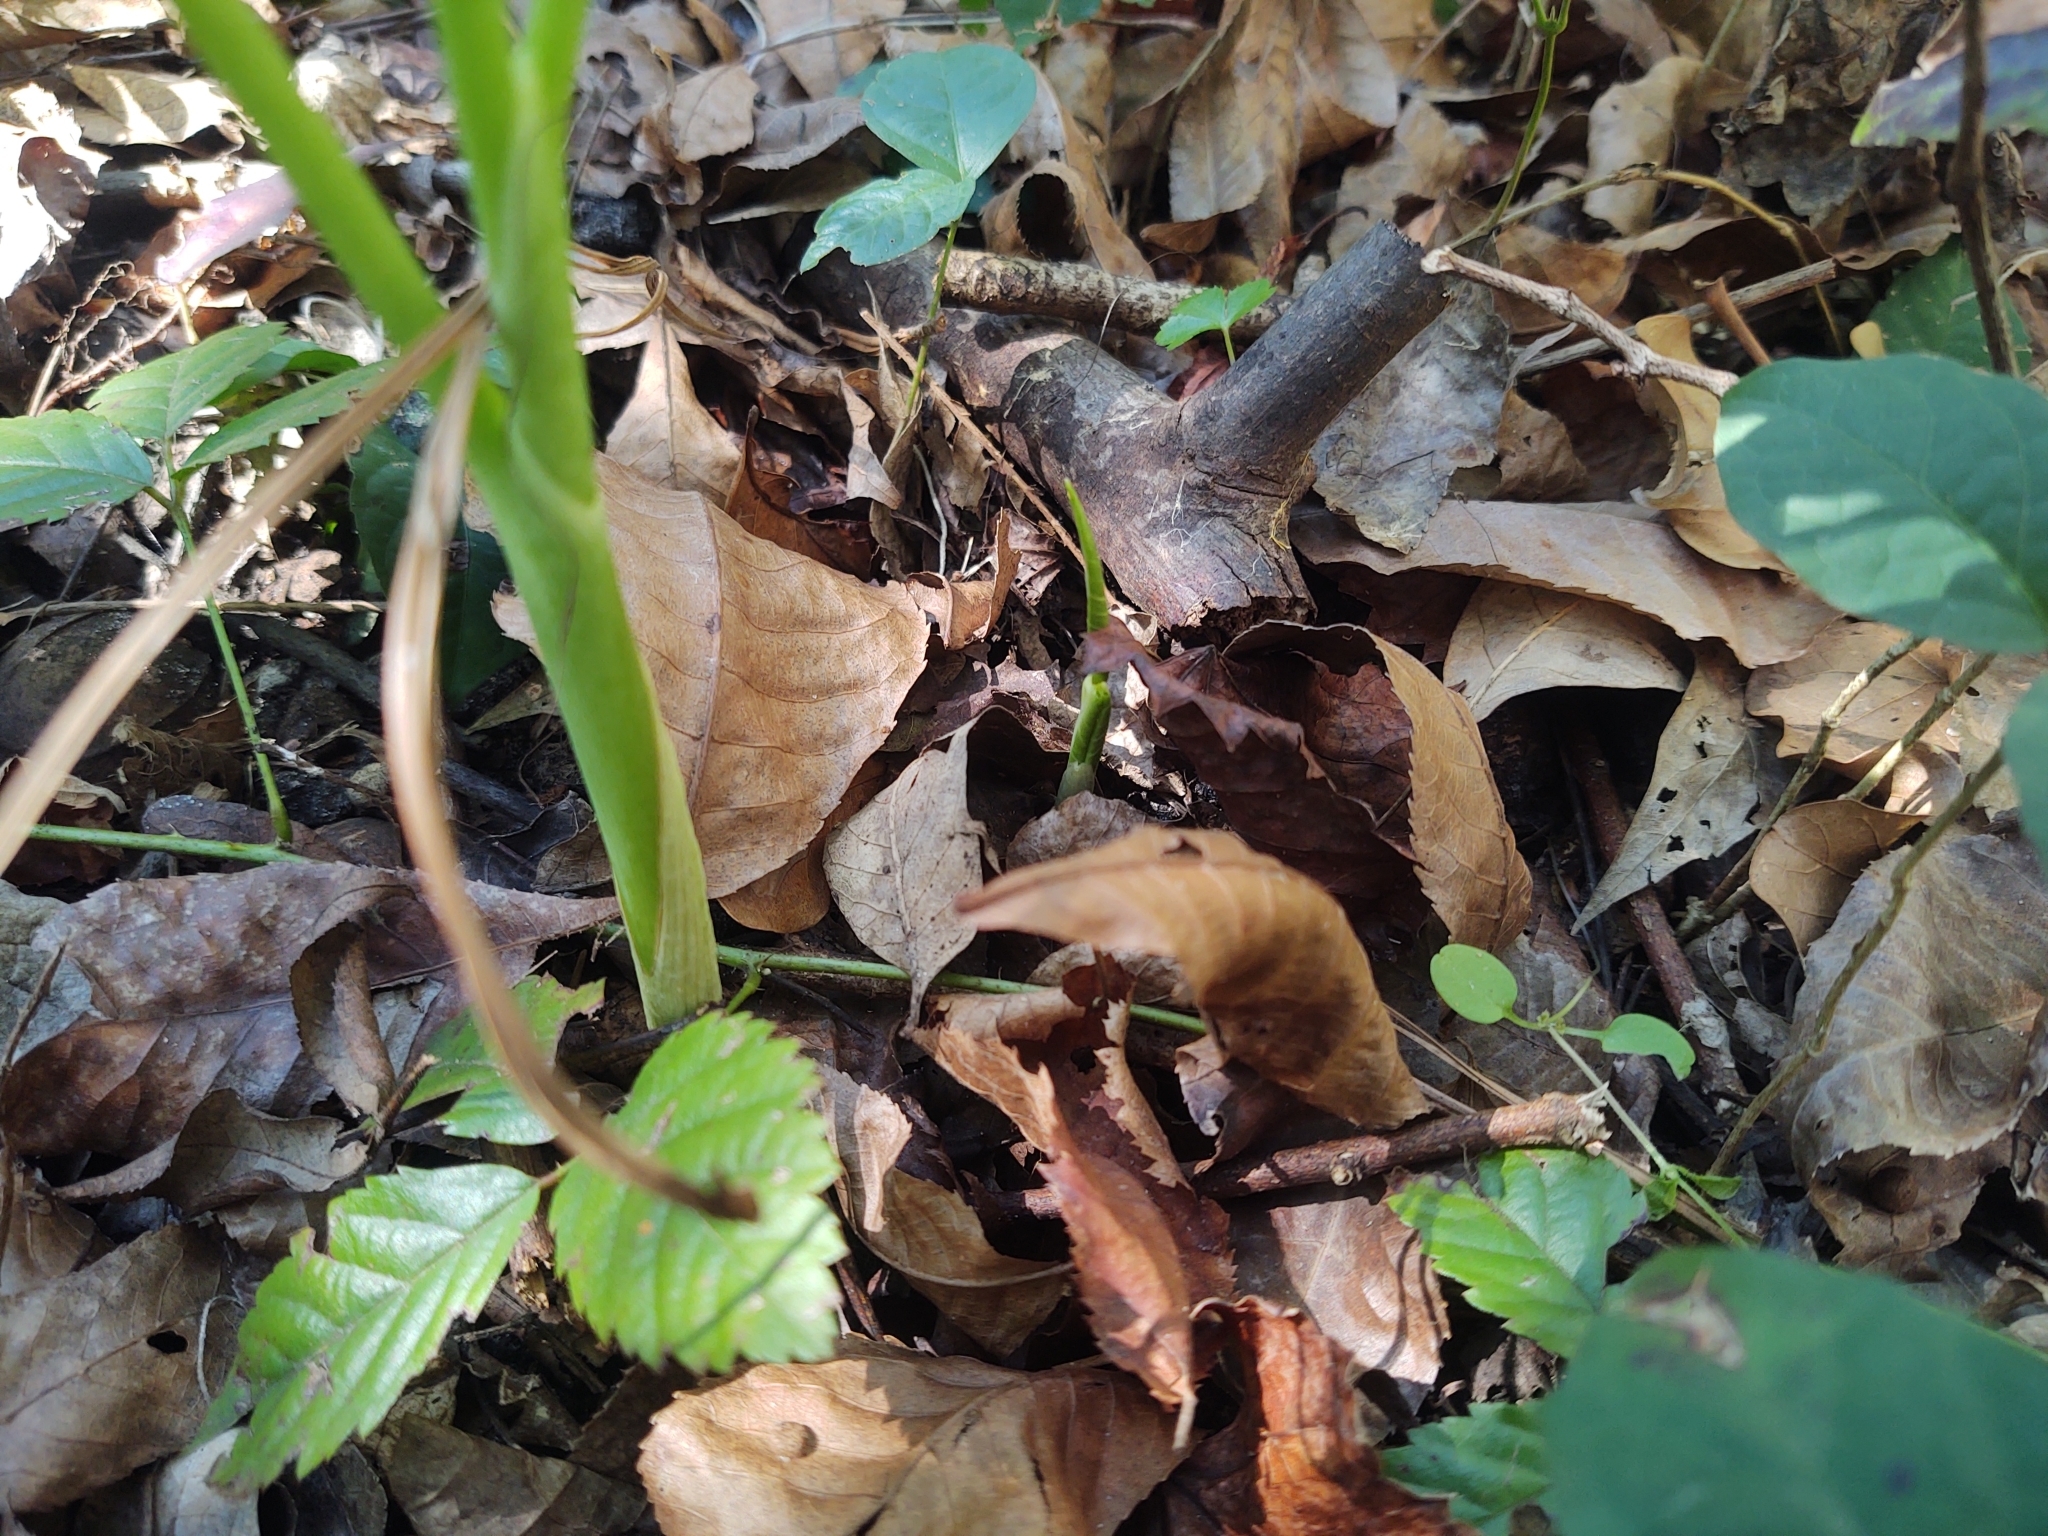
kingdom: Plantae
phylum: Tracheophyta
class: Liliopsida
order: Alismatales
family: Araceae
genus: Arisaema
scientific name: Arisaema acuminatum
